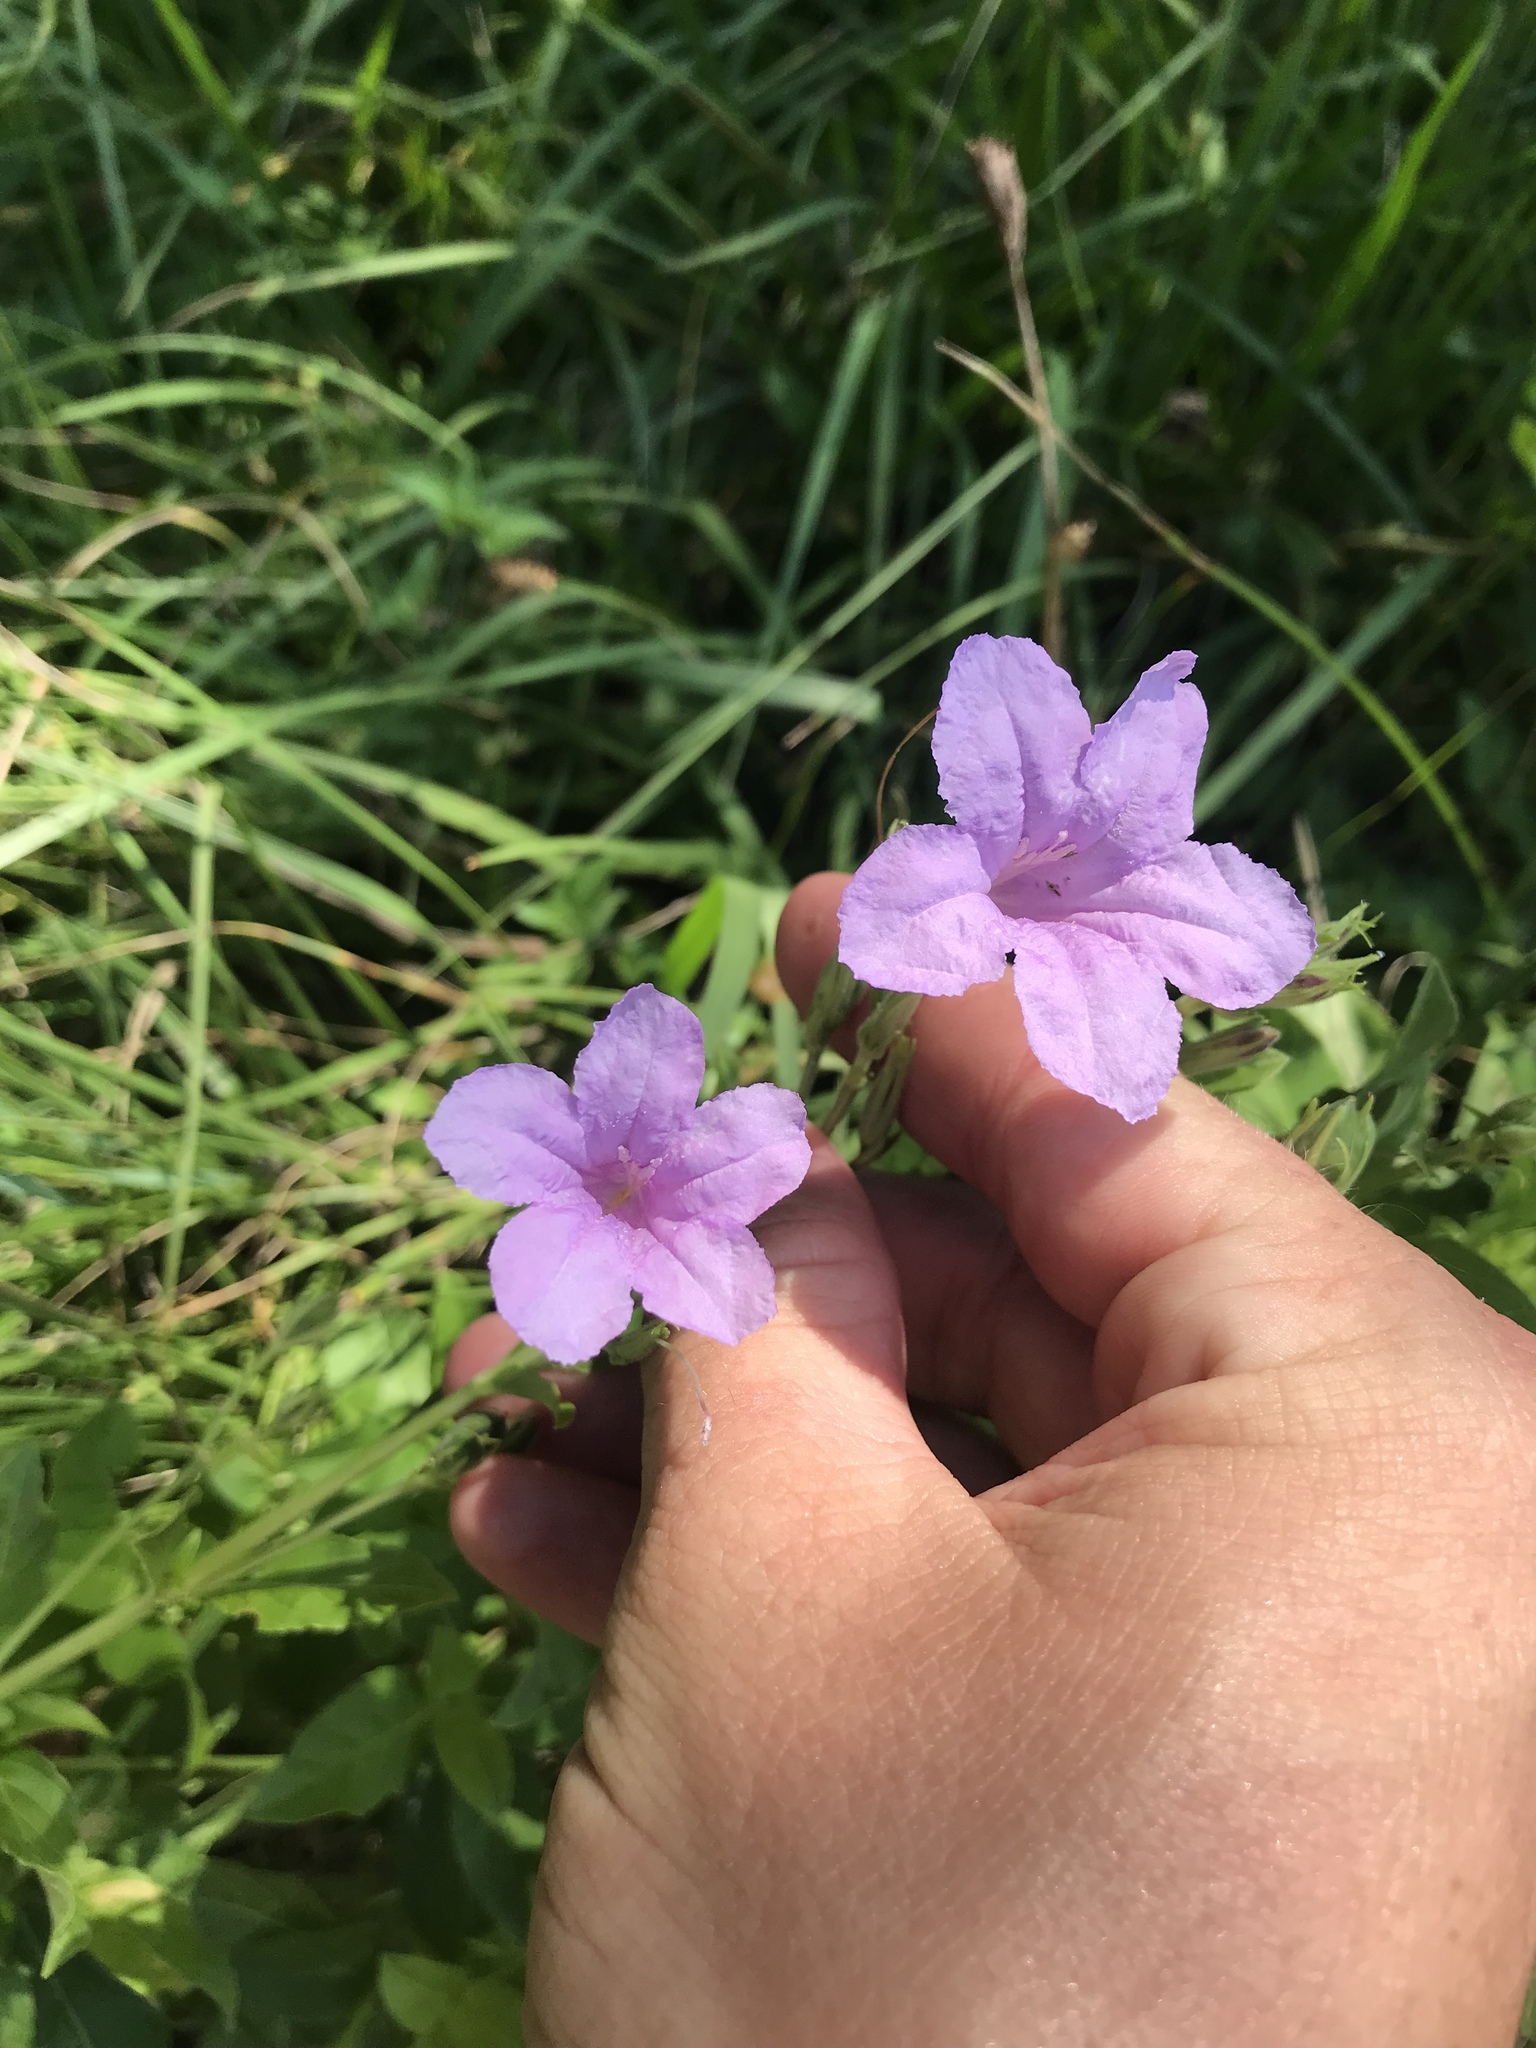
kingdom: Plantae
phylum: Tracheophyta
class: Magnoliopsida
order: Lamiales
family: Acanthaceae
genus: Ruellia
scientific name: Ruellia ciliatiflora
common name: Hairyflower wild petunia
